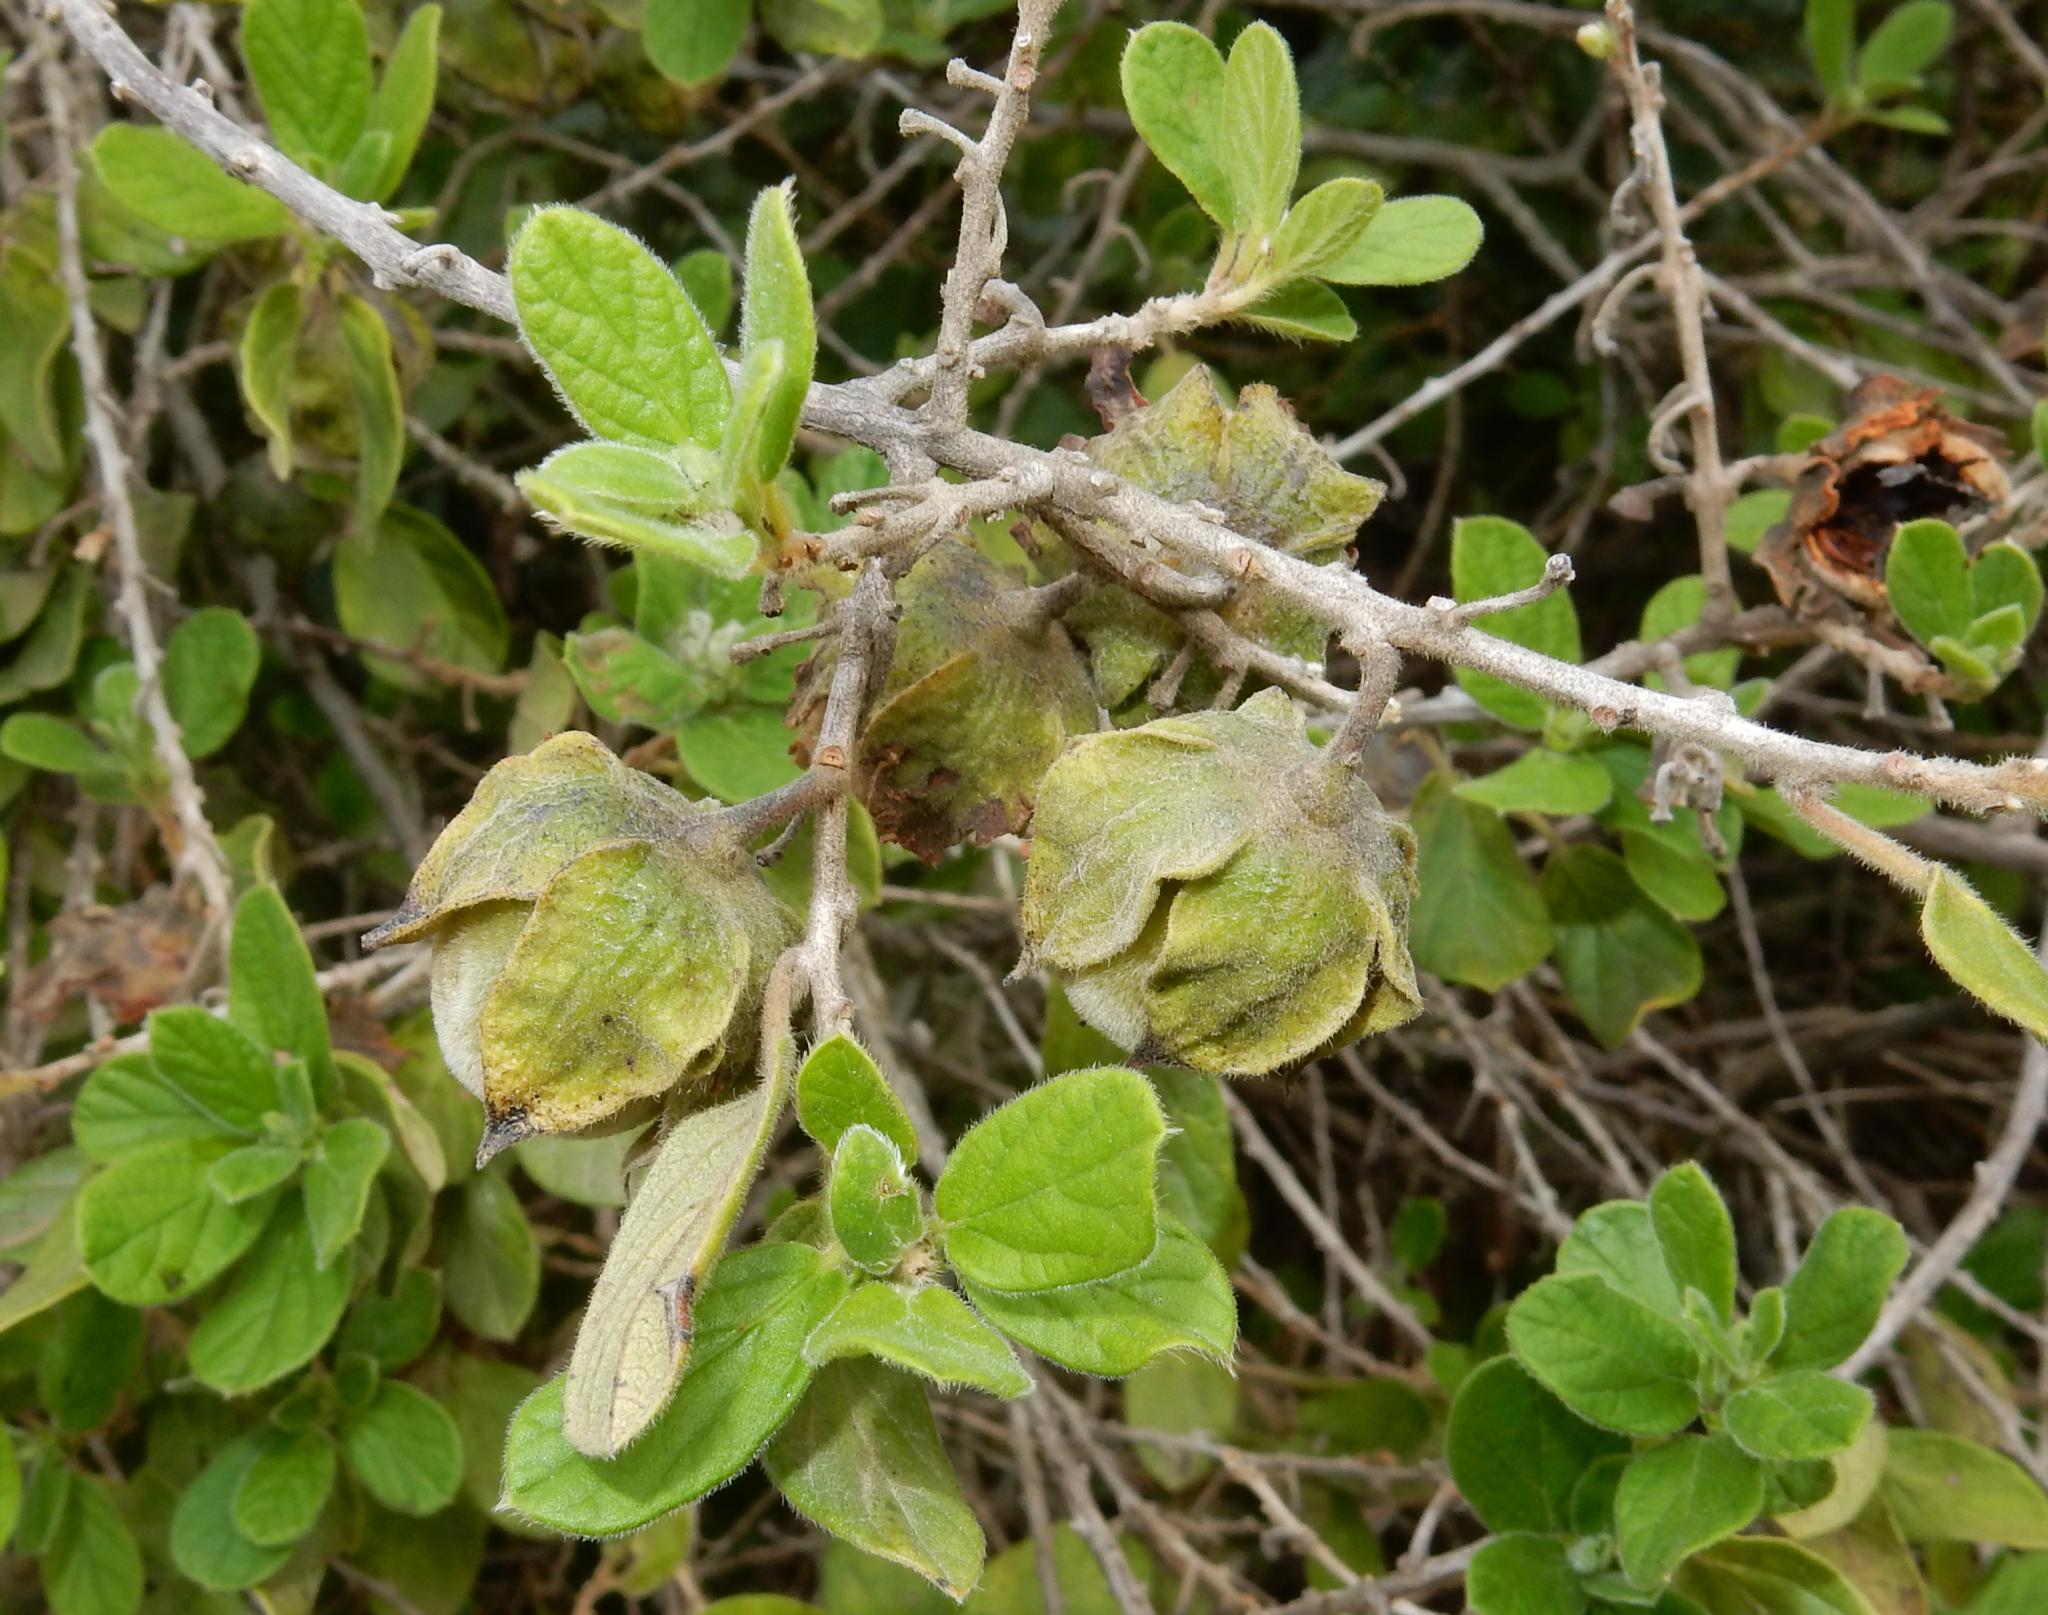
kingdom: Plantae
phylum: Tracheophyta
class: Magnoliopsida
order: Ericales
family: Ebenaceae
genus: Diospyros
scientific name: Diospyros villosa
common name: Hairy star-apple
